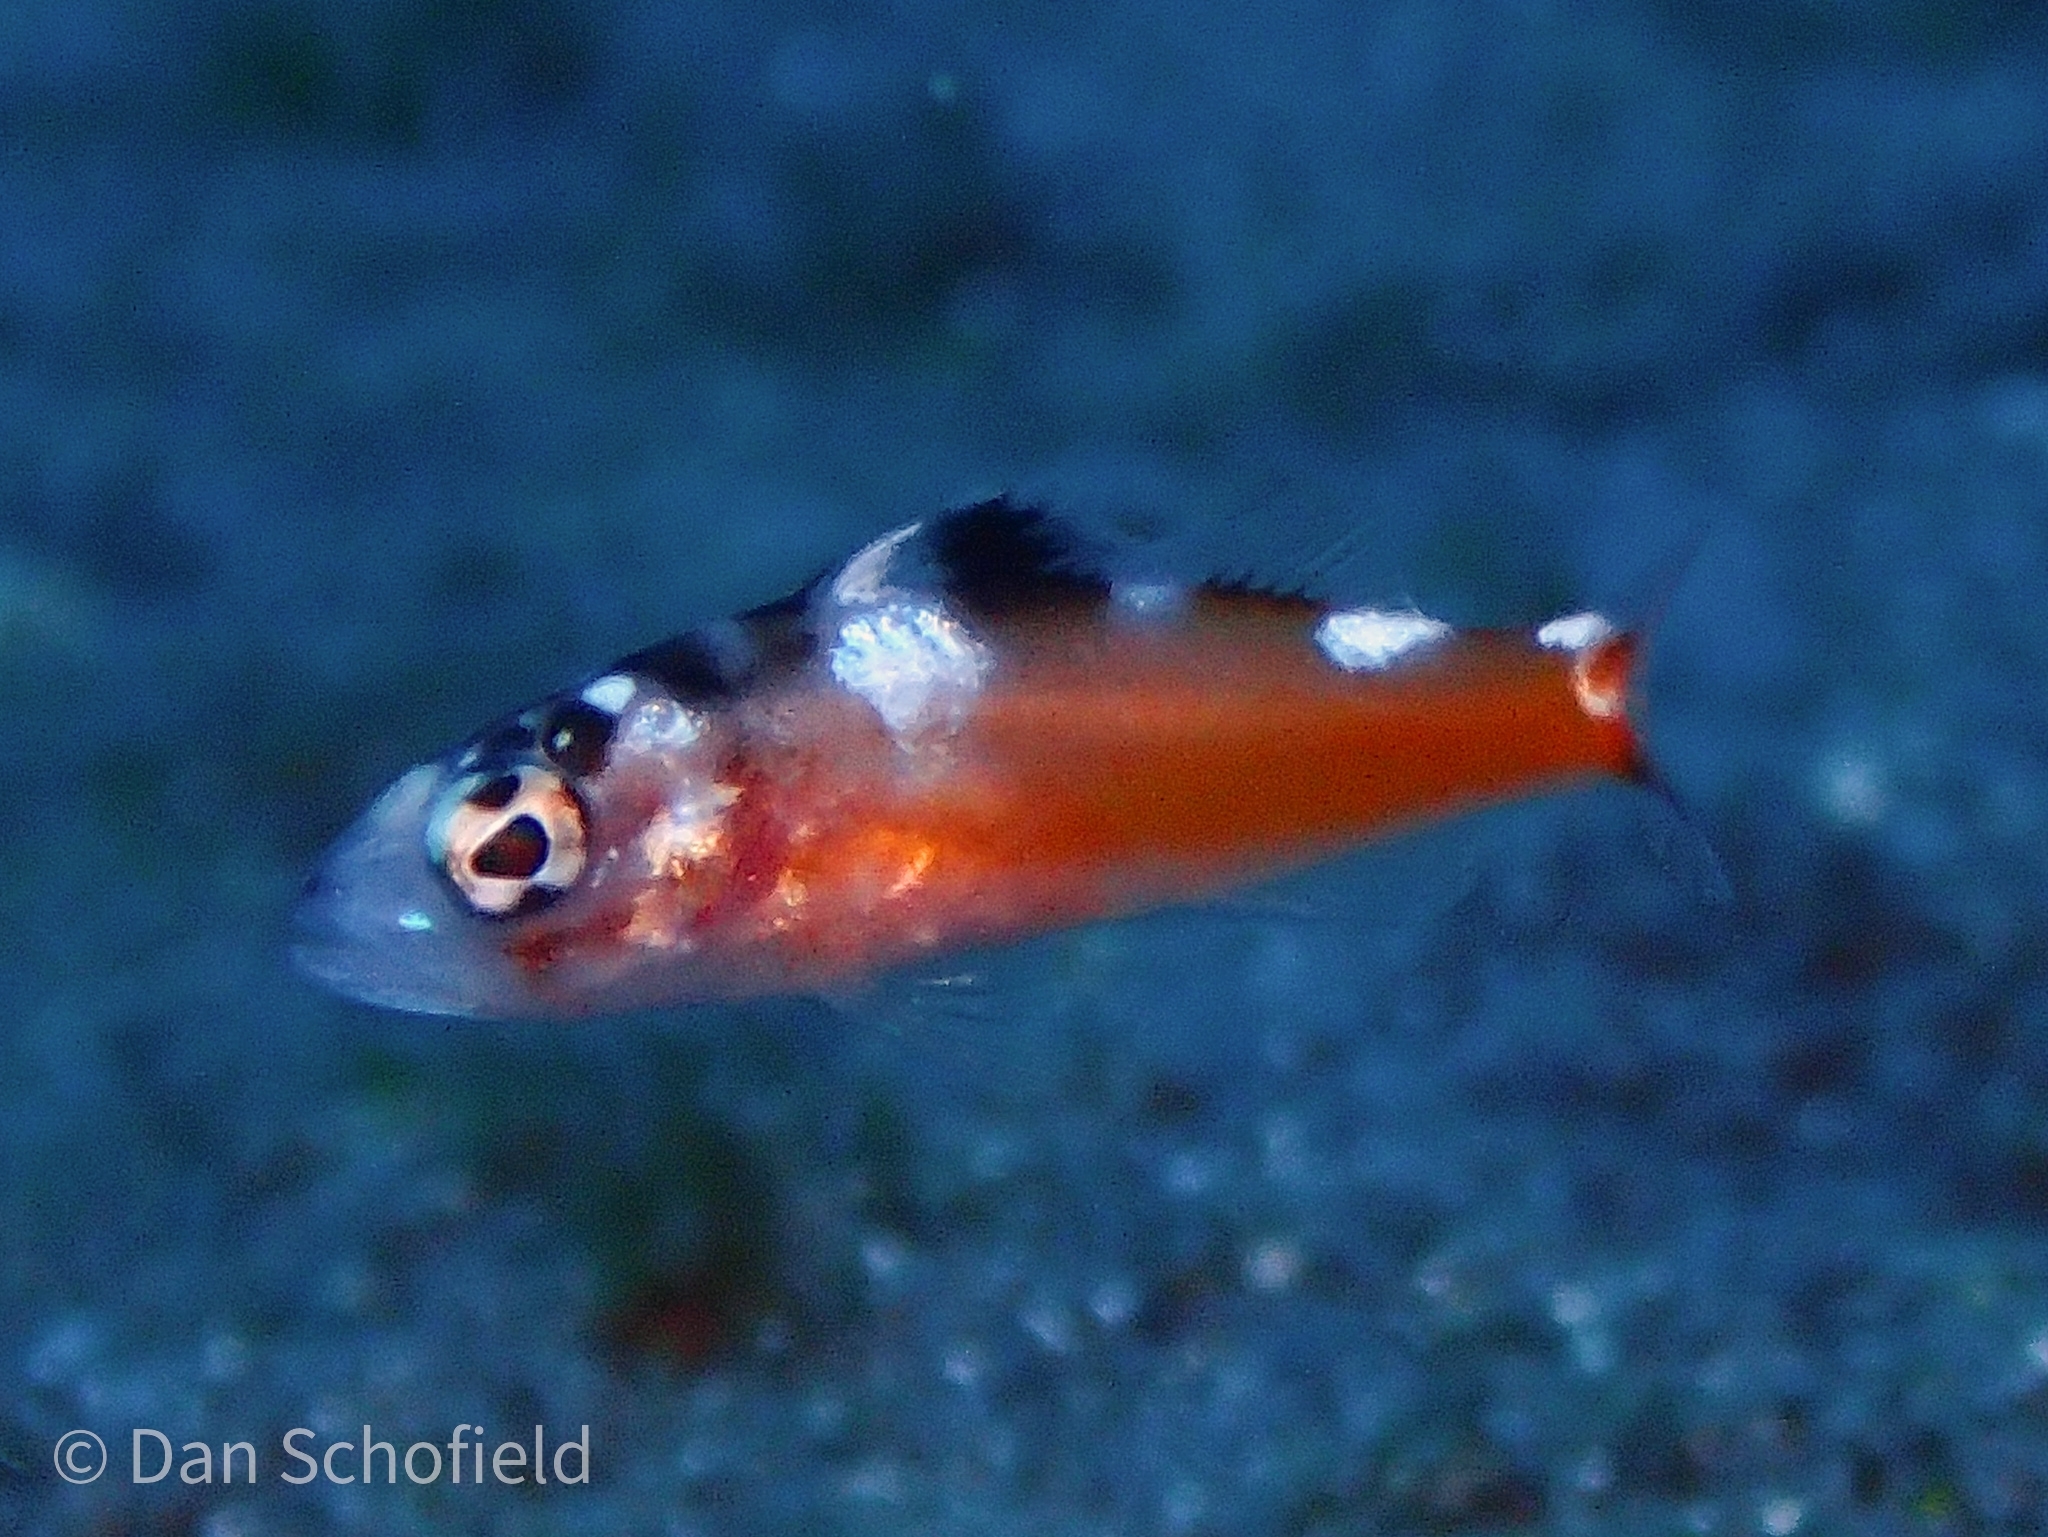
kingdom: Animalia
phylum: Chordata
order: Perciformes
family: Serranidae
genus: Serranus
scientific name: Serranus tabacarius
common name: Tobaccofish
